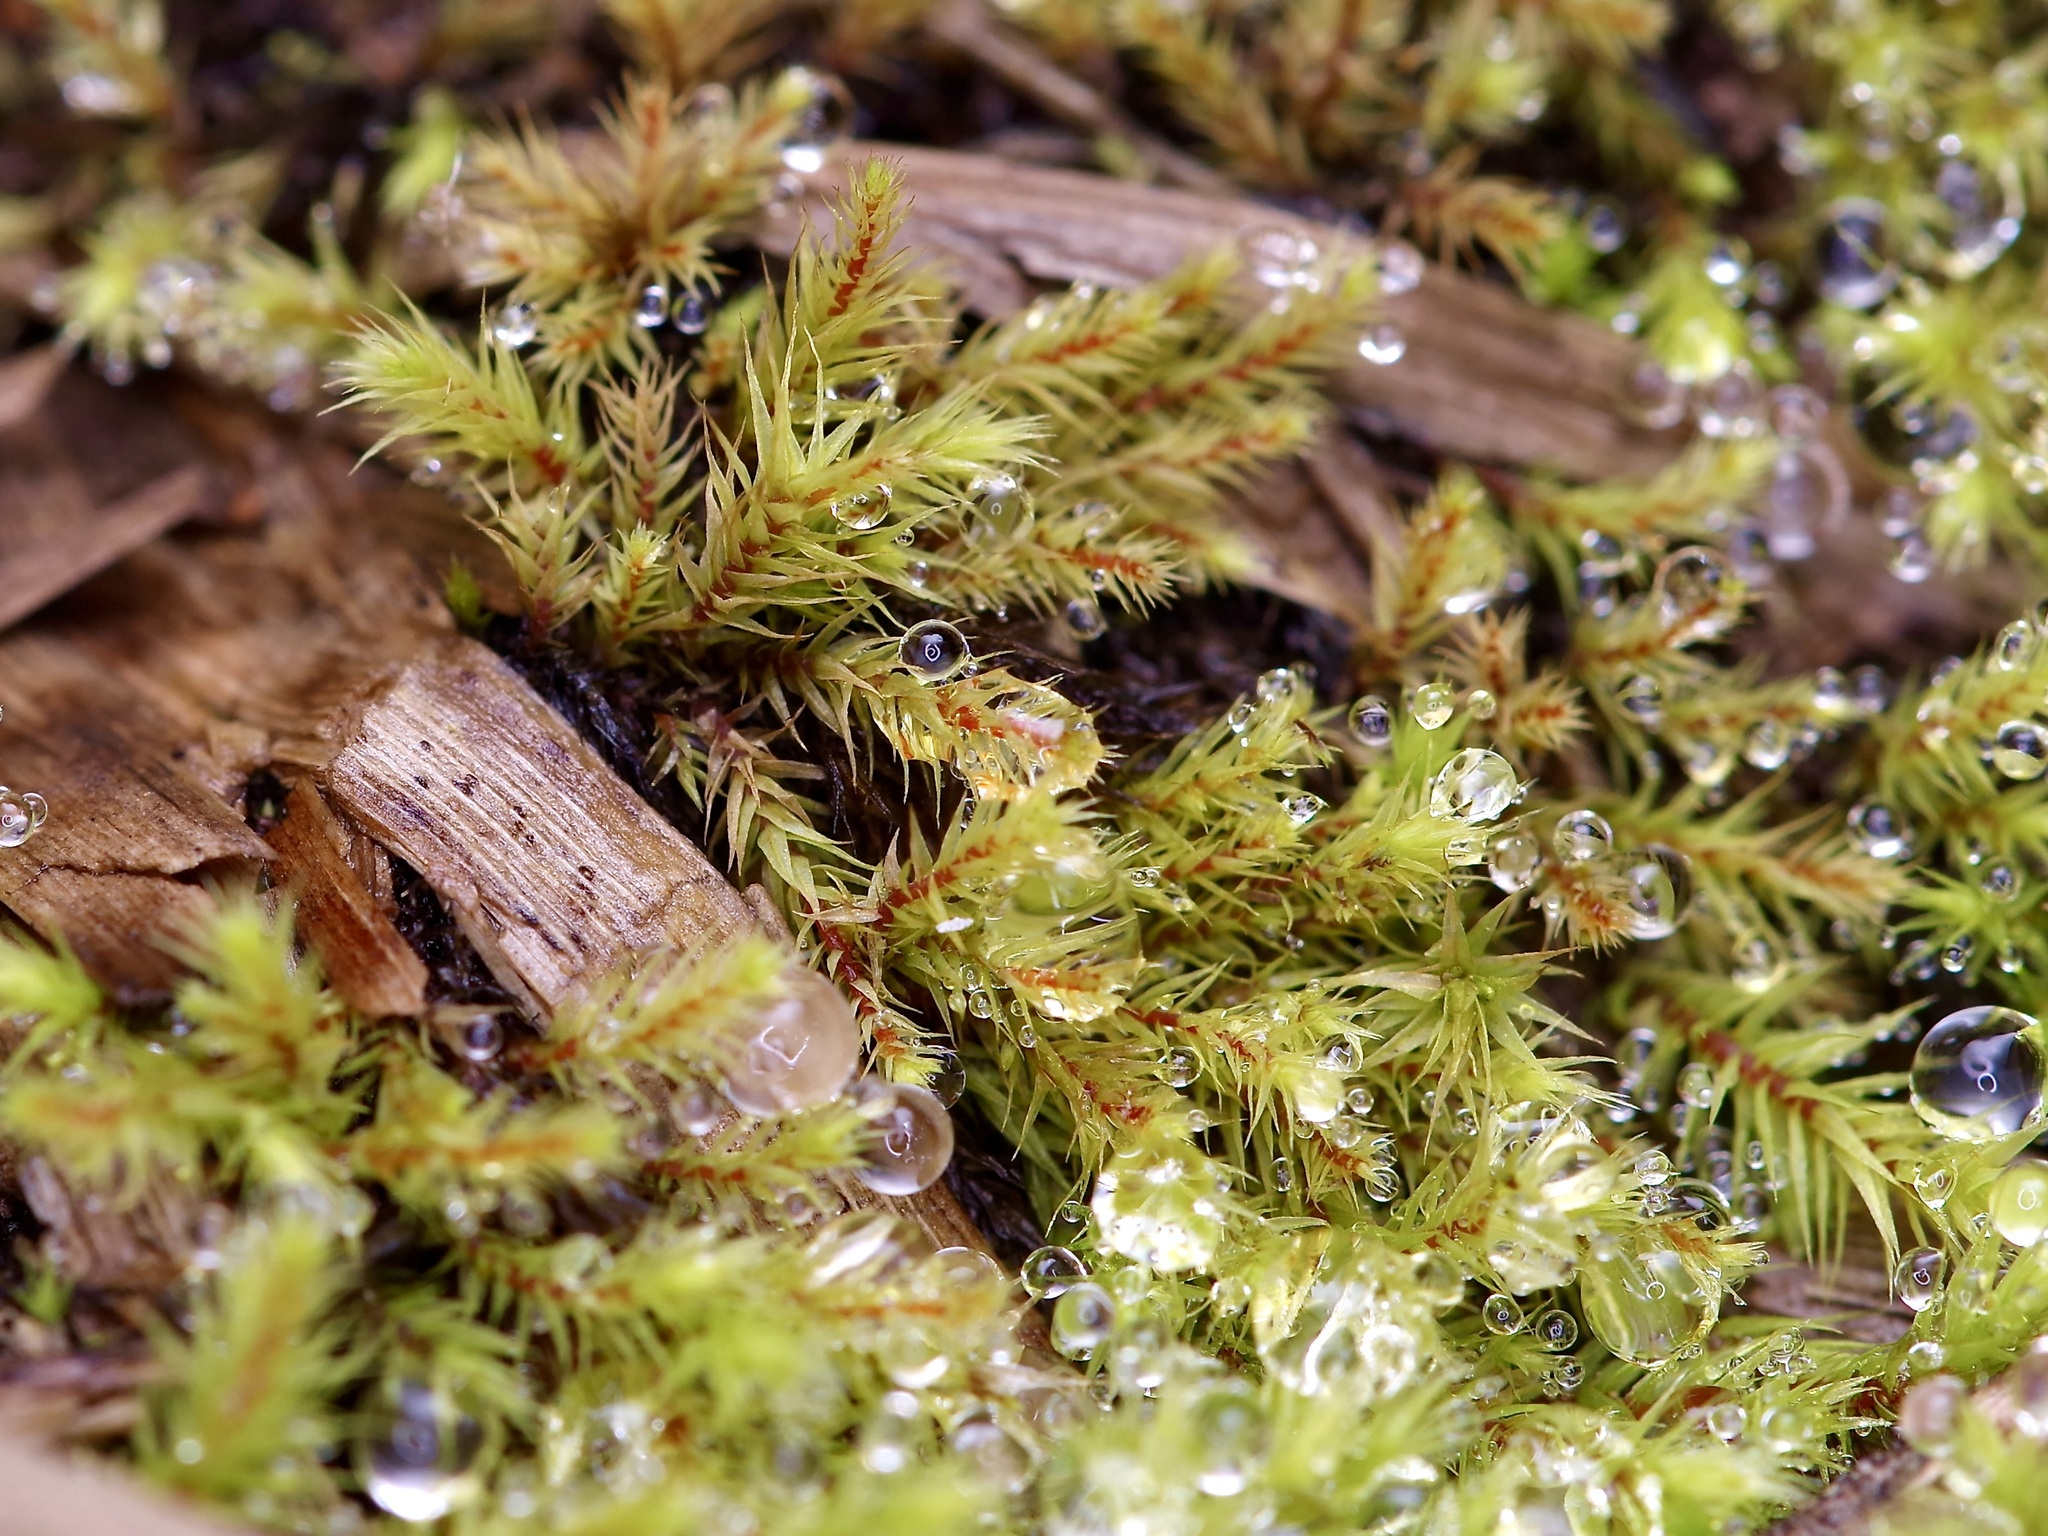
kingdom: Plantae
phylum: Bryophyta
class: Bryopsida
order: Aulacomniales
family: Aulacomniaceae
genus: Aulacomnium
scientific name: Aulacomnium palustre
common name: Bog groove-moss
